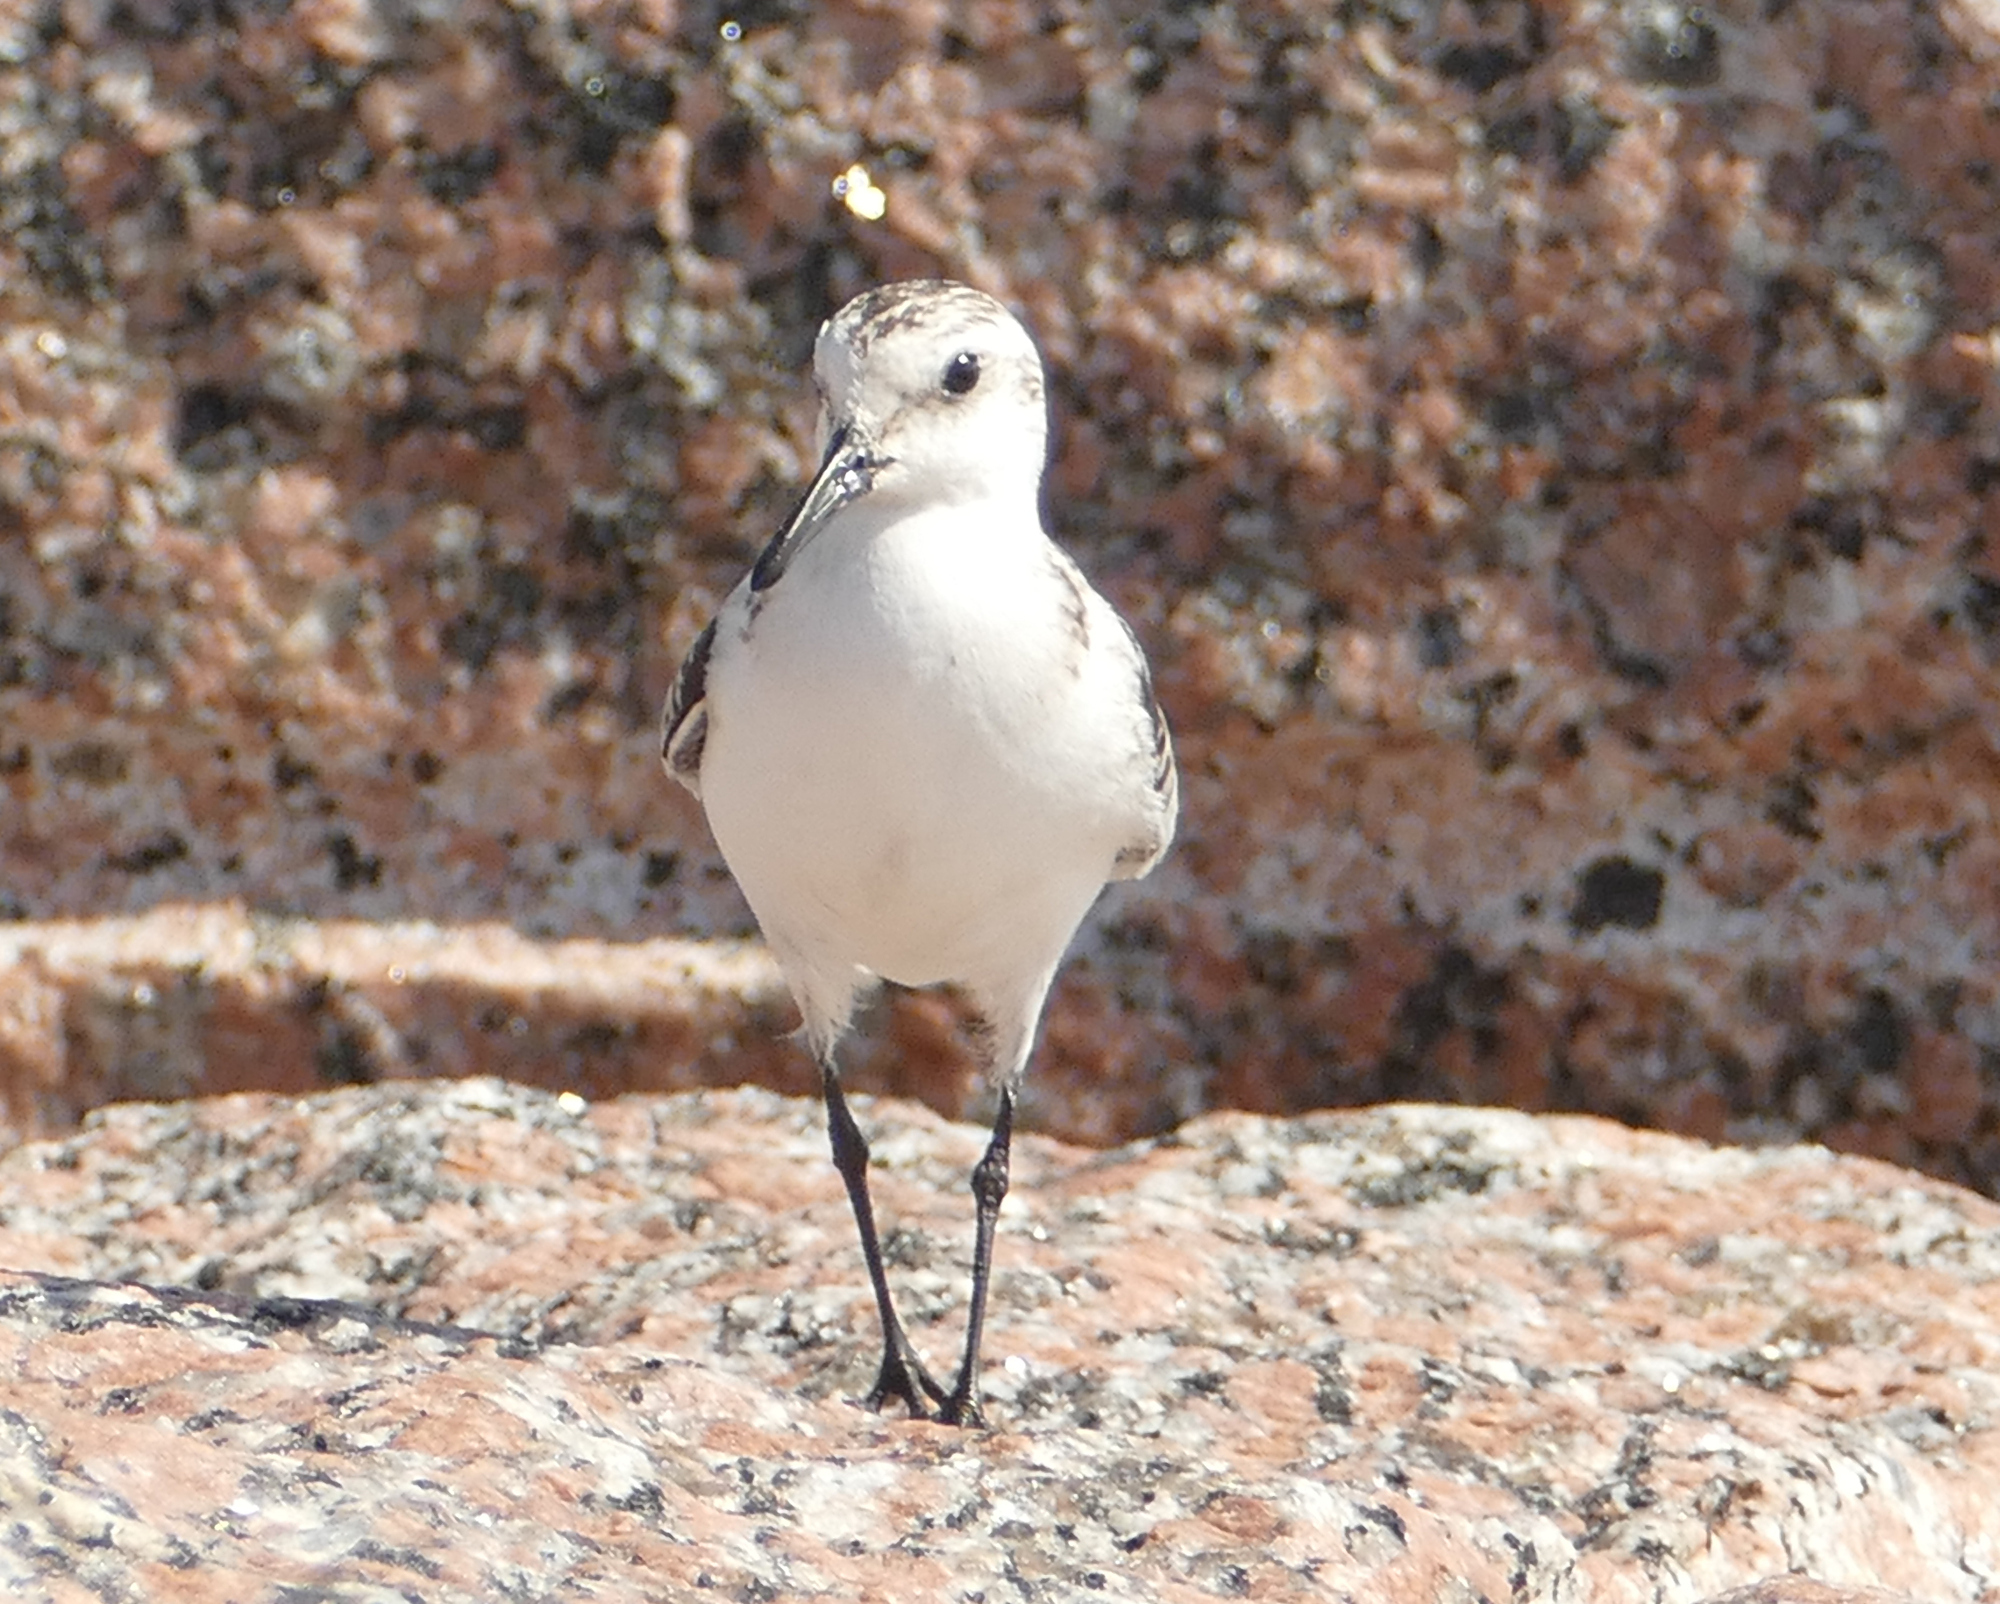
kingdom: Animalia
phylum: Chordata
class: Aves
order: Charadriiformes
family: Scolopacidae
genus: Calidris
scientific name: Calidris alba
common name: Sanderling
